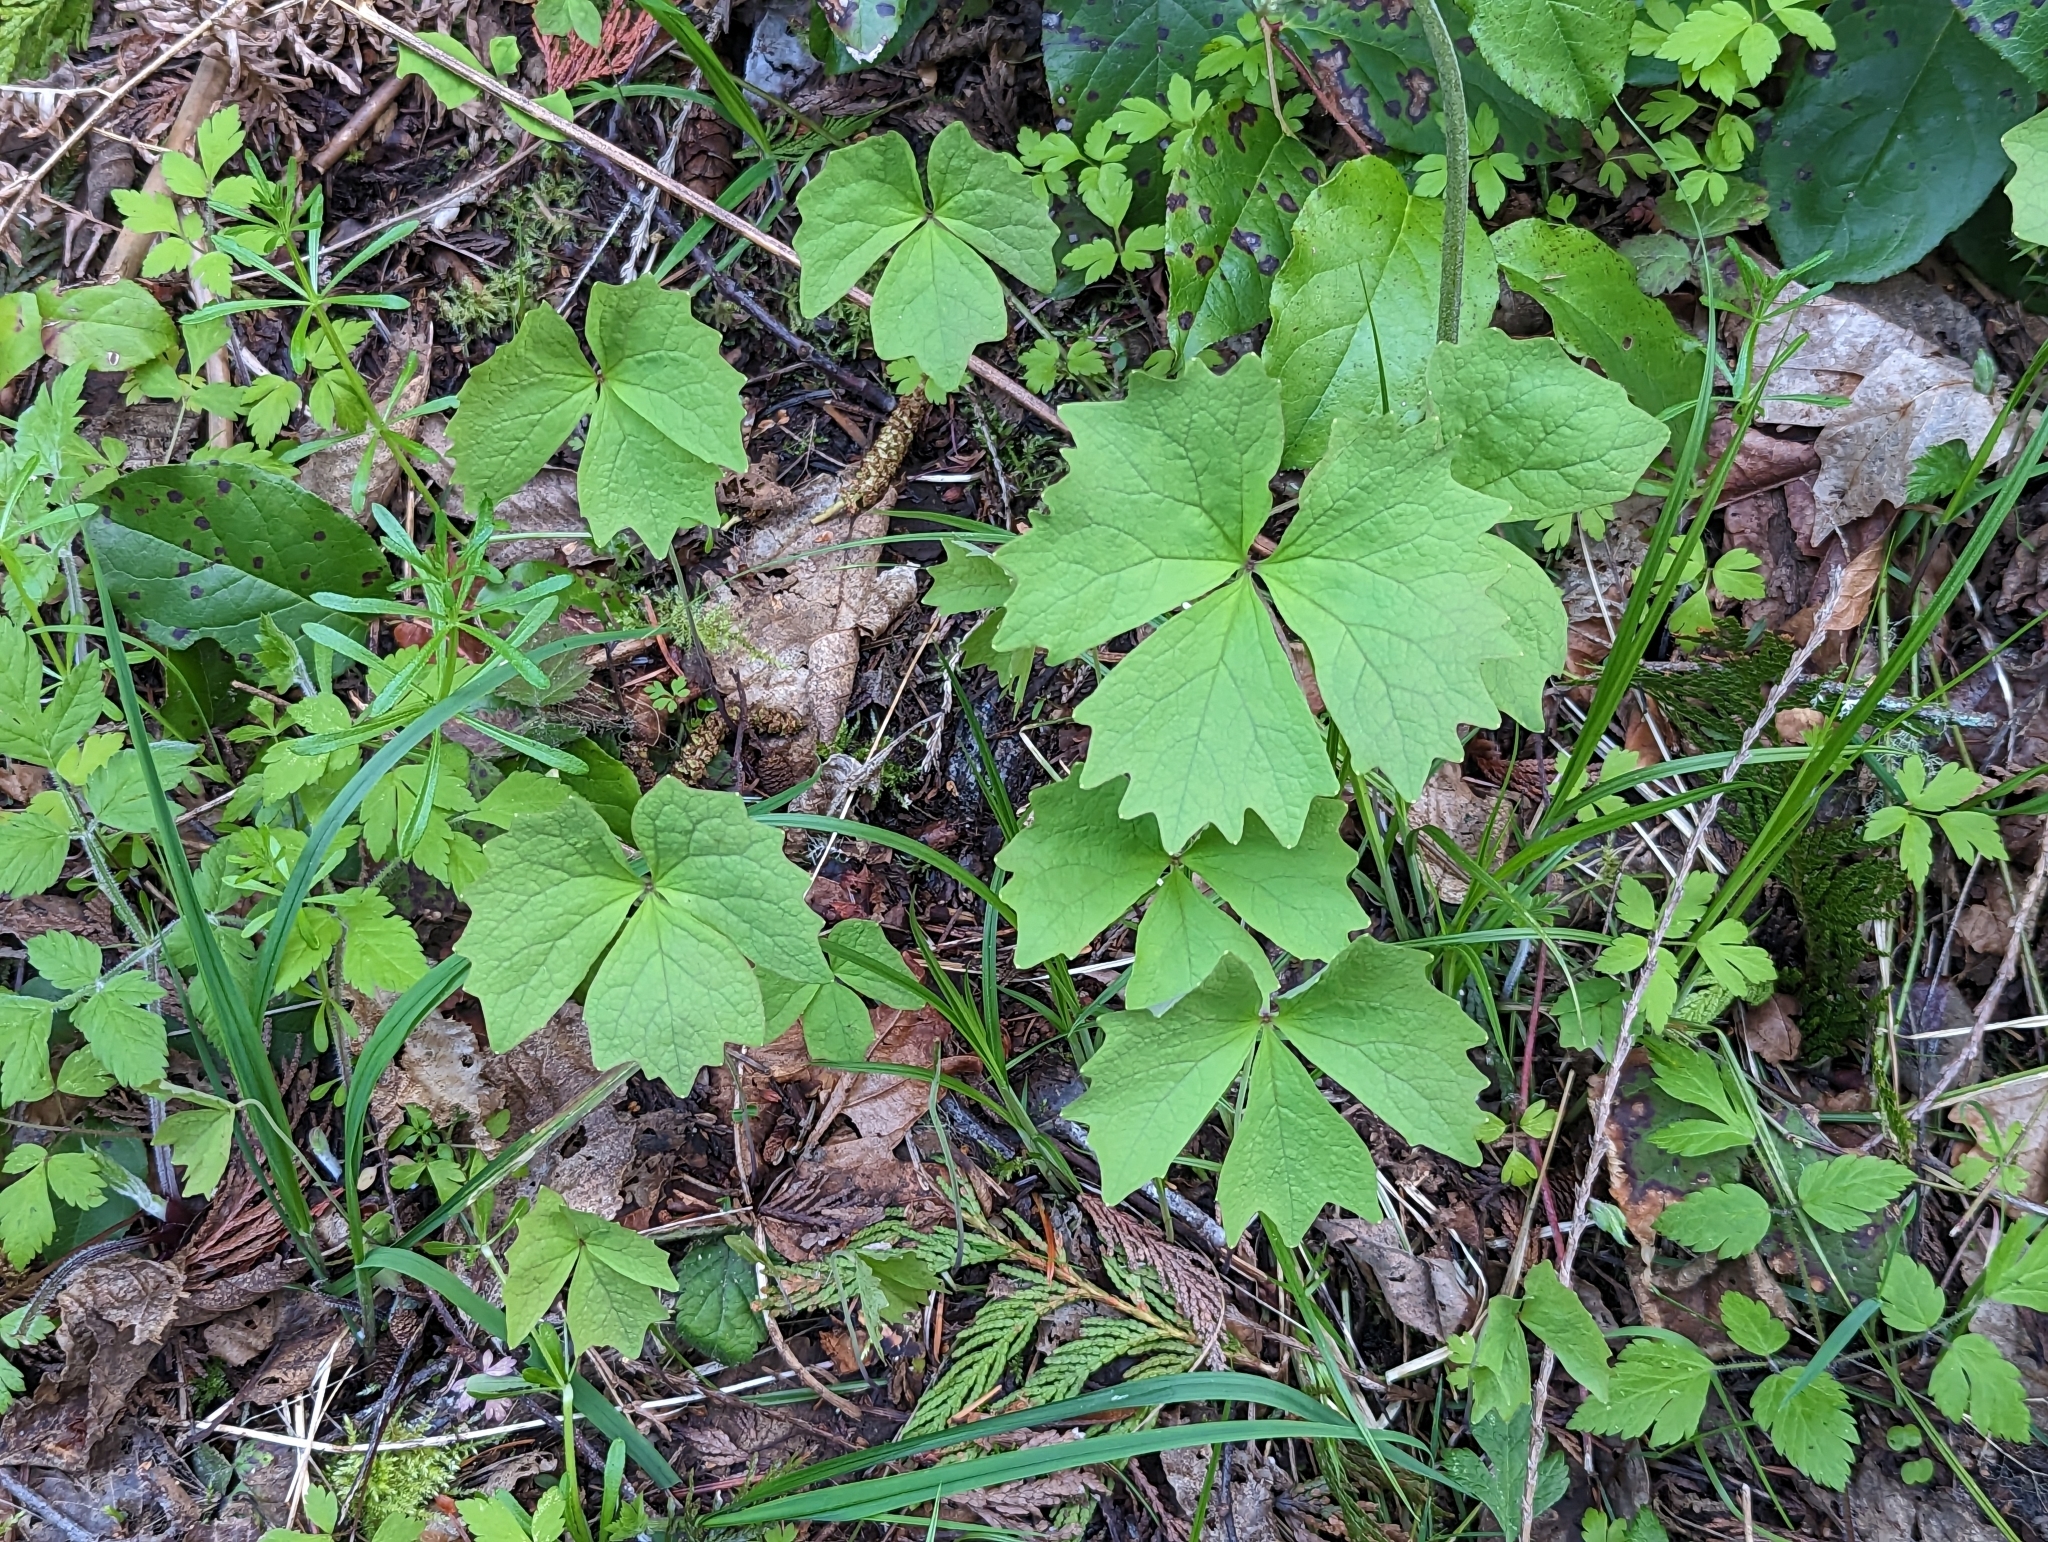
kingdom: Plantae
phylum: Tracheophyta
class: Magnoliopsida
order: Ranunculales
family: Berberidaceae
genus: Achlys
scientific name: Achlys triphylla
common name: Vanilla-leaf
